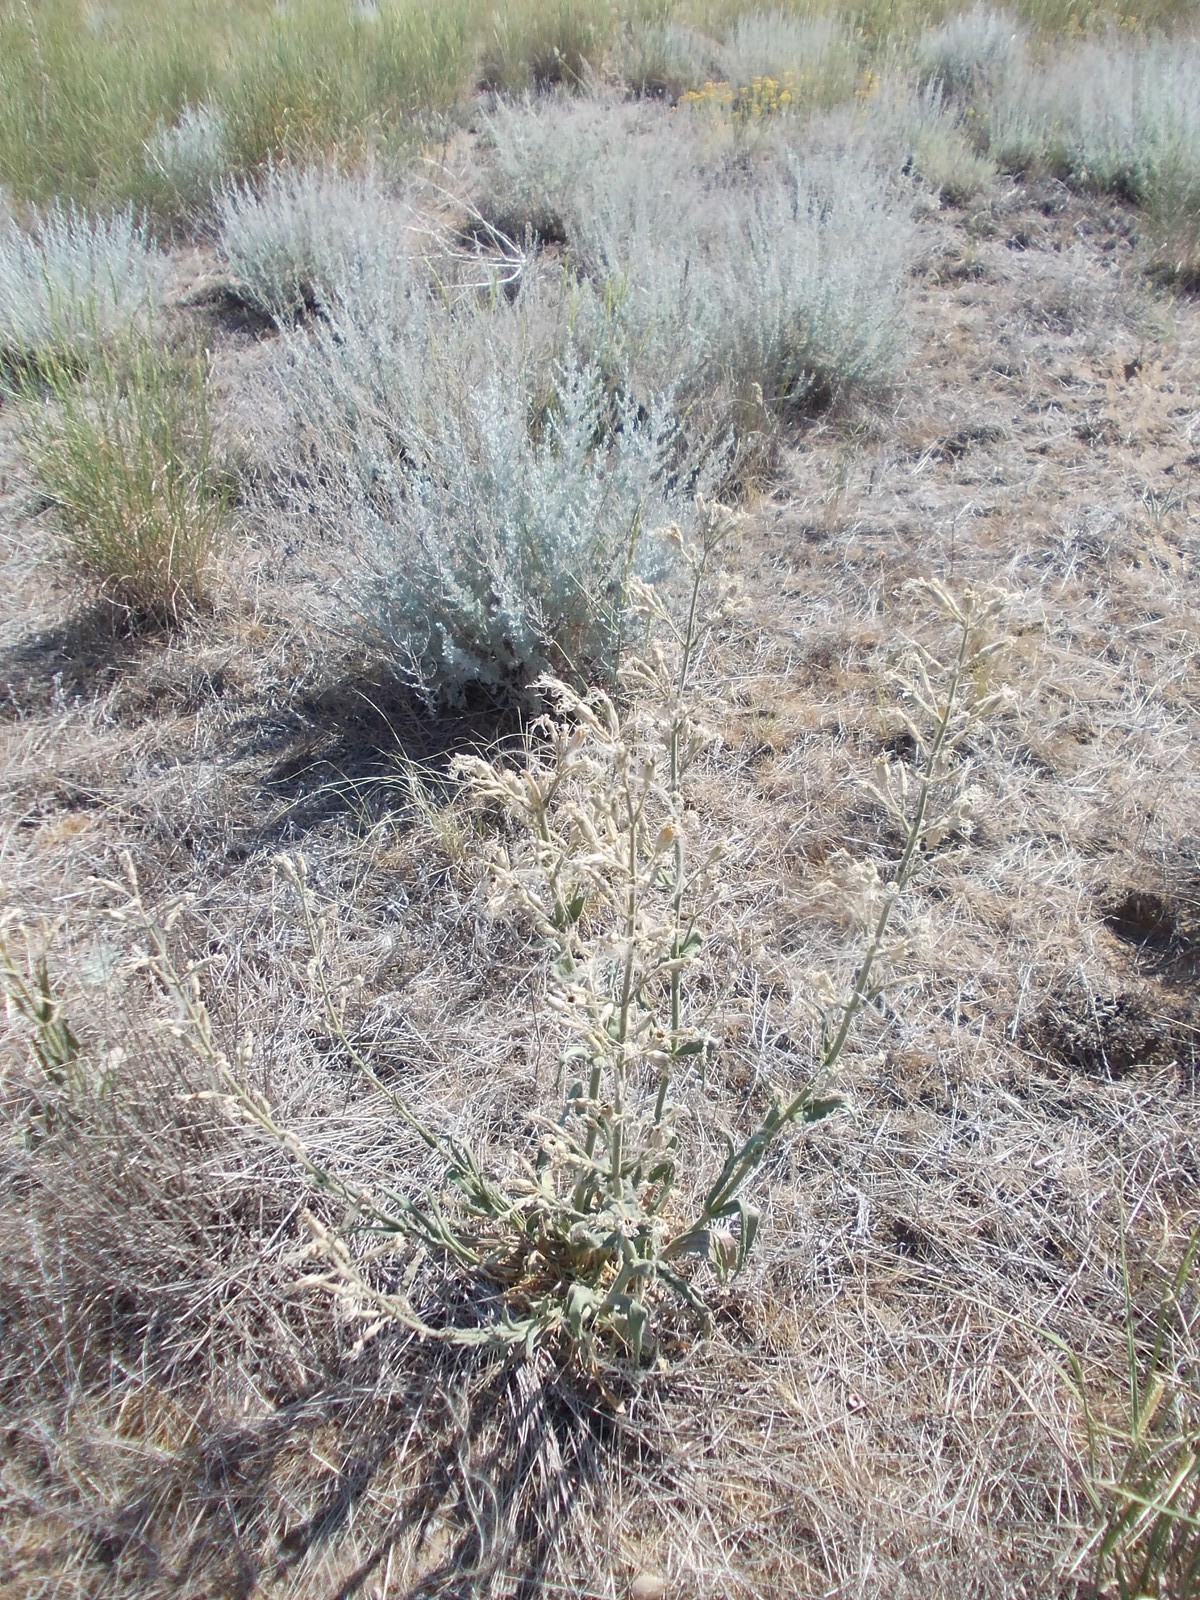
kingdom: Plantae
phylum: Tracheophyta
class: Magnoliopsida
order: Caryophyllales
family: Caryophyllaceae
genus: Silene
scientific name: Silene viscosa
